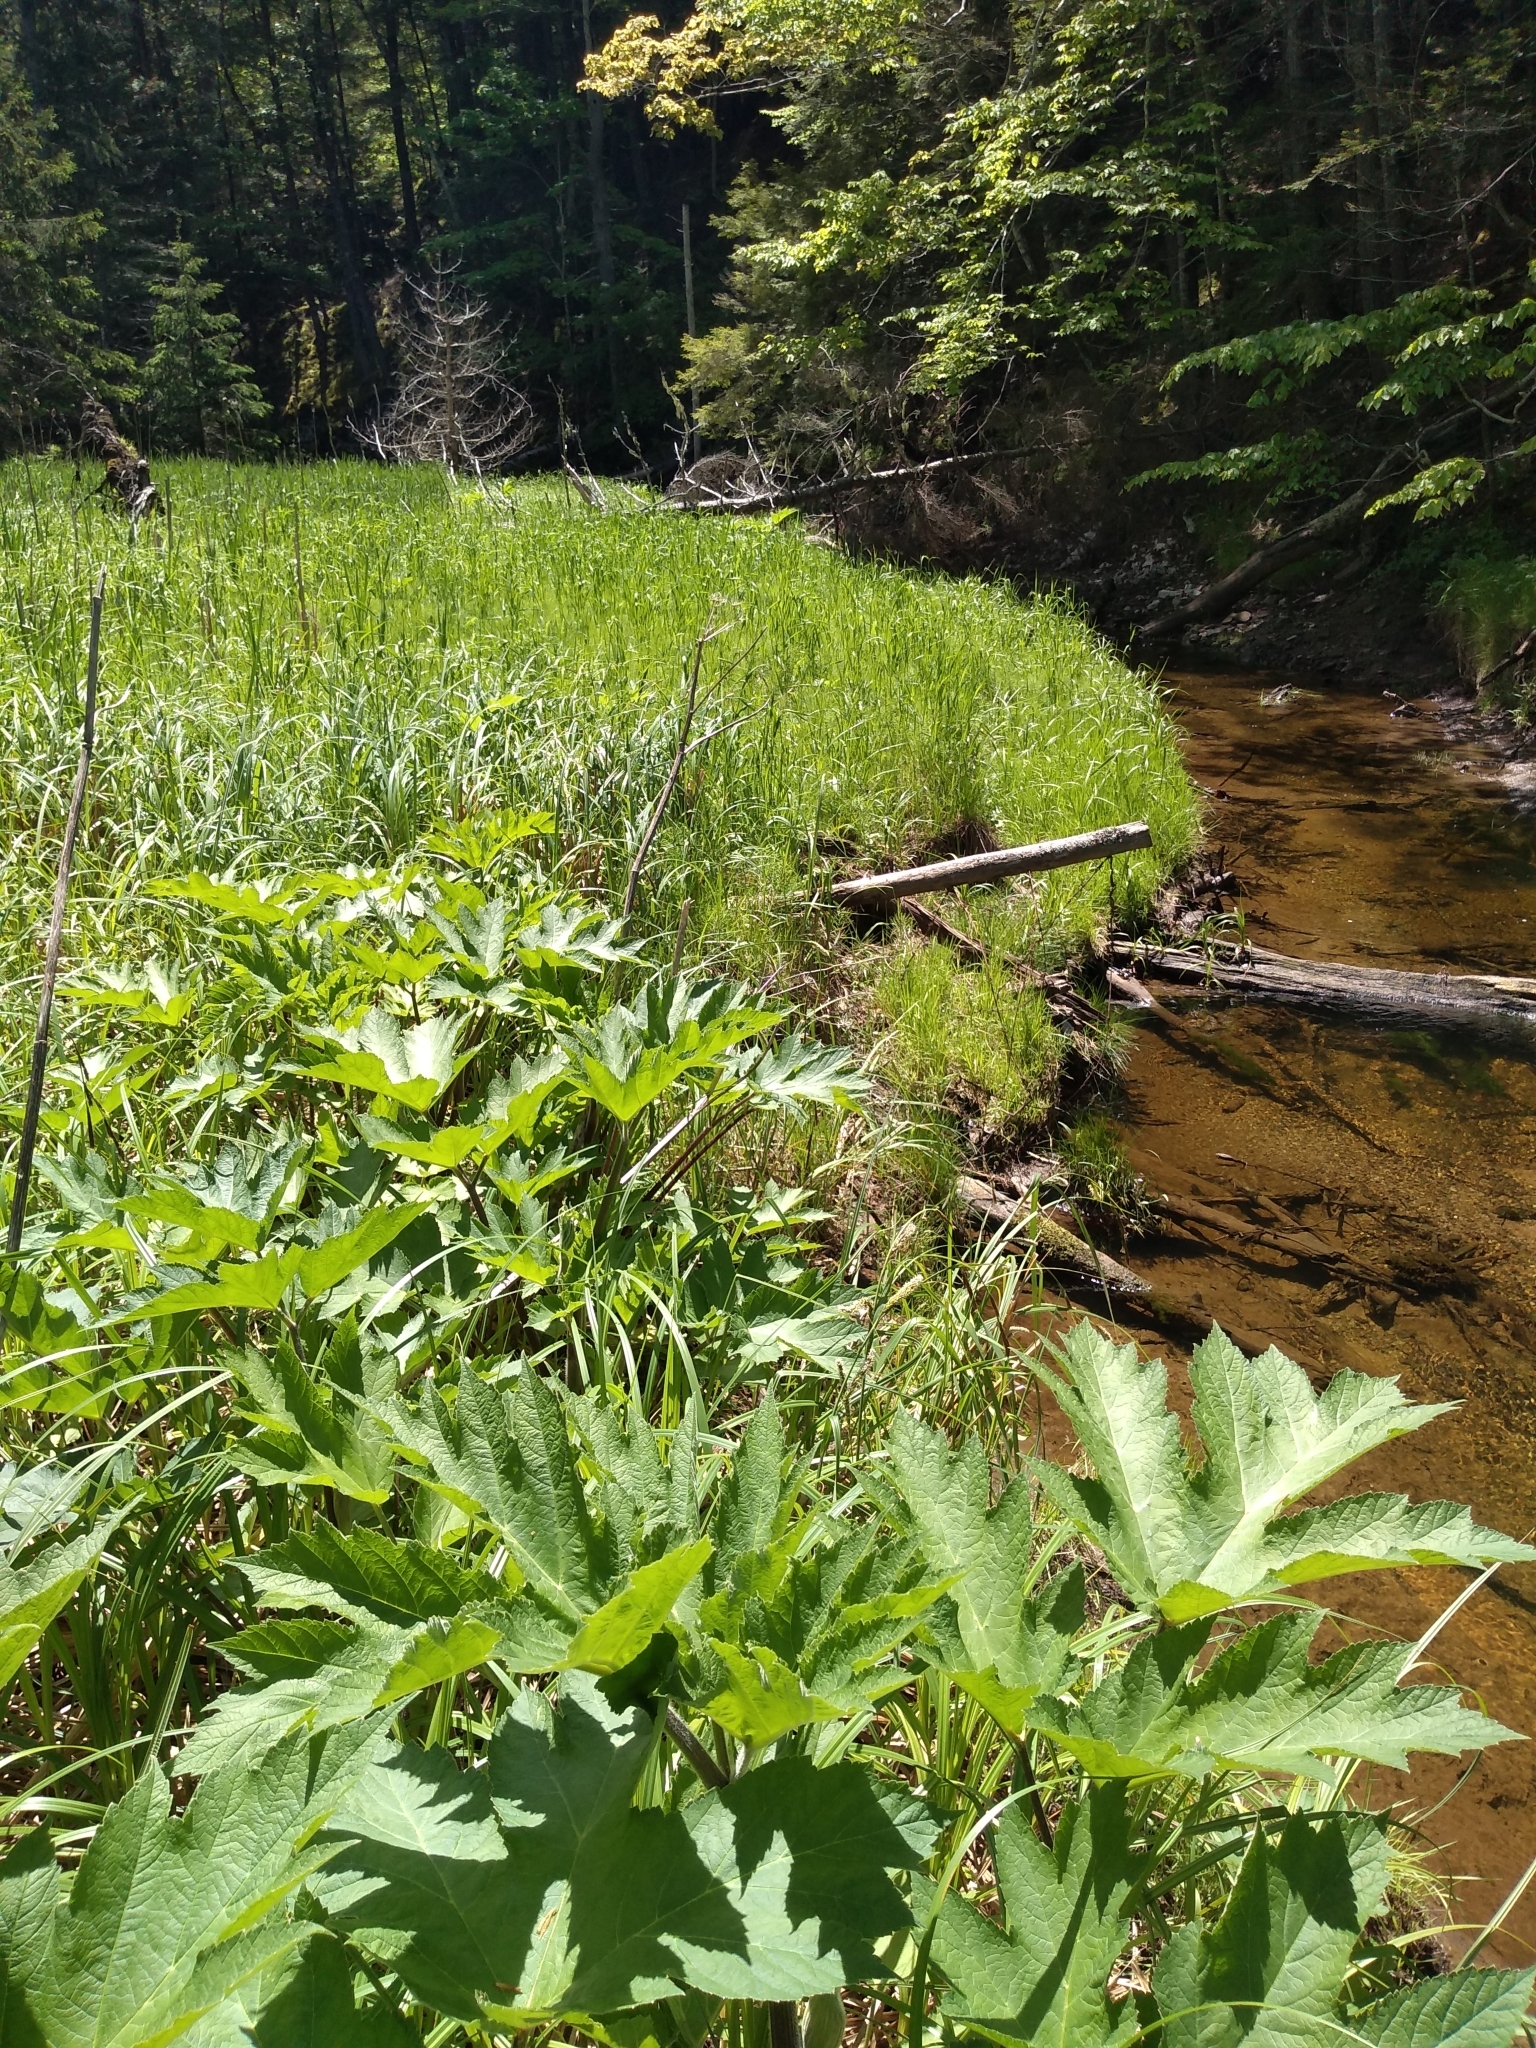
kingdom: Plantae
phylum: Tracheophyta
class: Magnoliopsida
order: Apiales
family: Apiaceae
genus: Heracleum
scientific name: Heracleum maximum
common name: American cow parsnip
